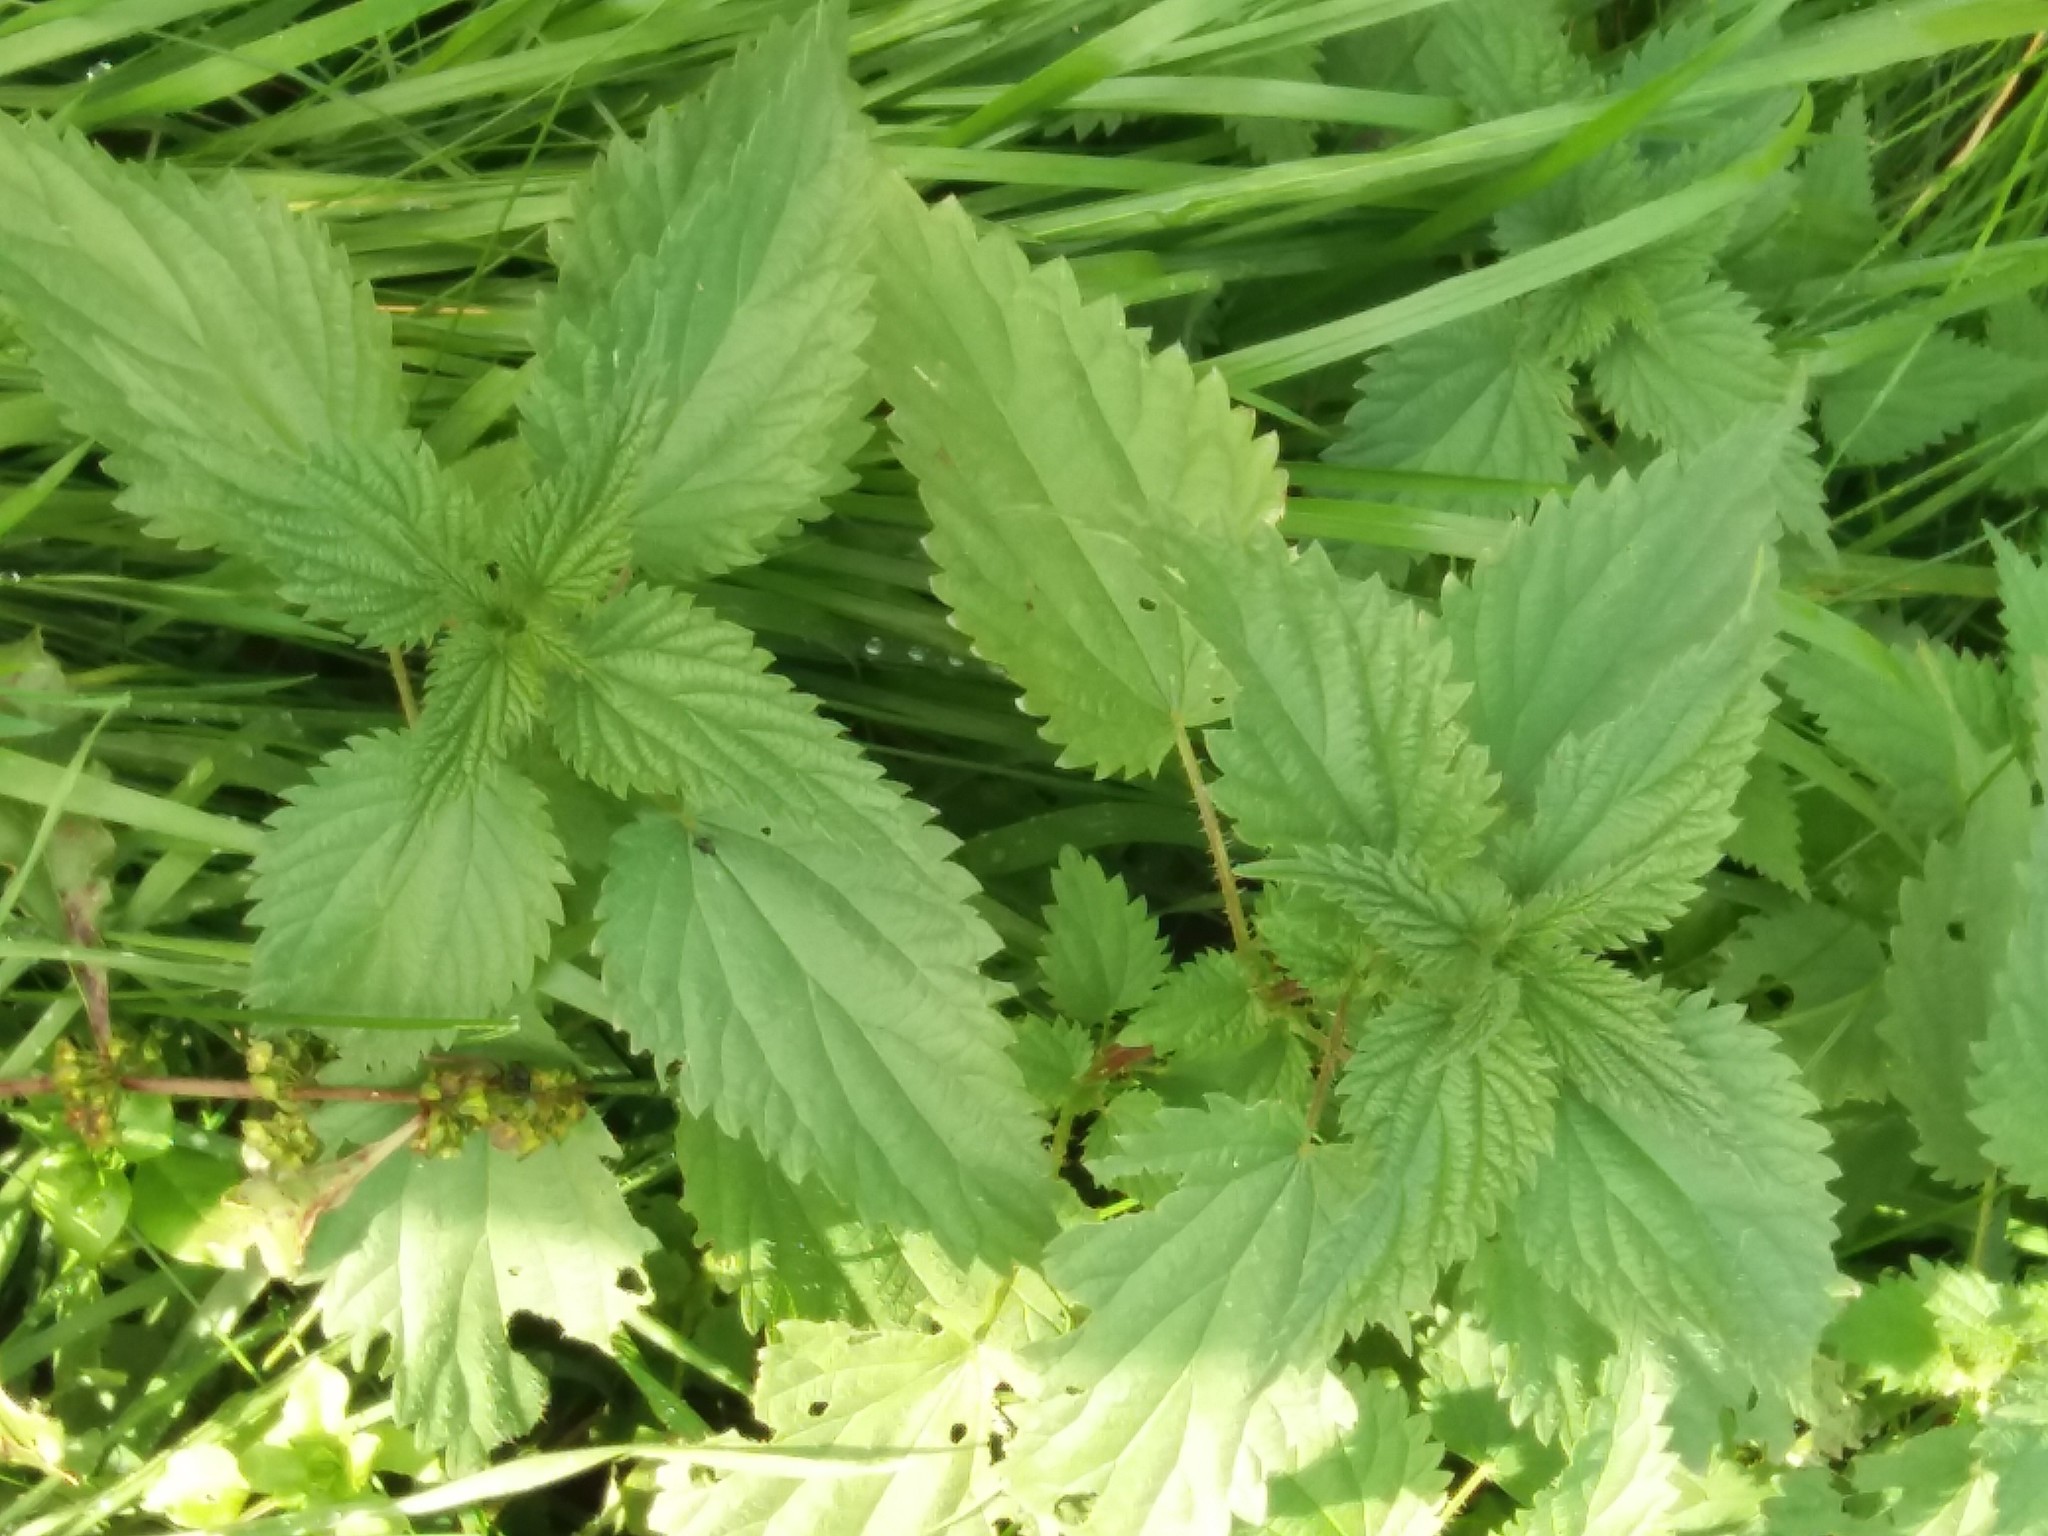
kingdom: Plantae
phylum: Tracheophyta
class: Magnoliopsida
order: Rosales
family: Urticaceae
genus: Urtica
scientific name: Urtica dioica
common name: Common nettle
